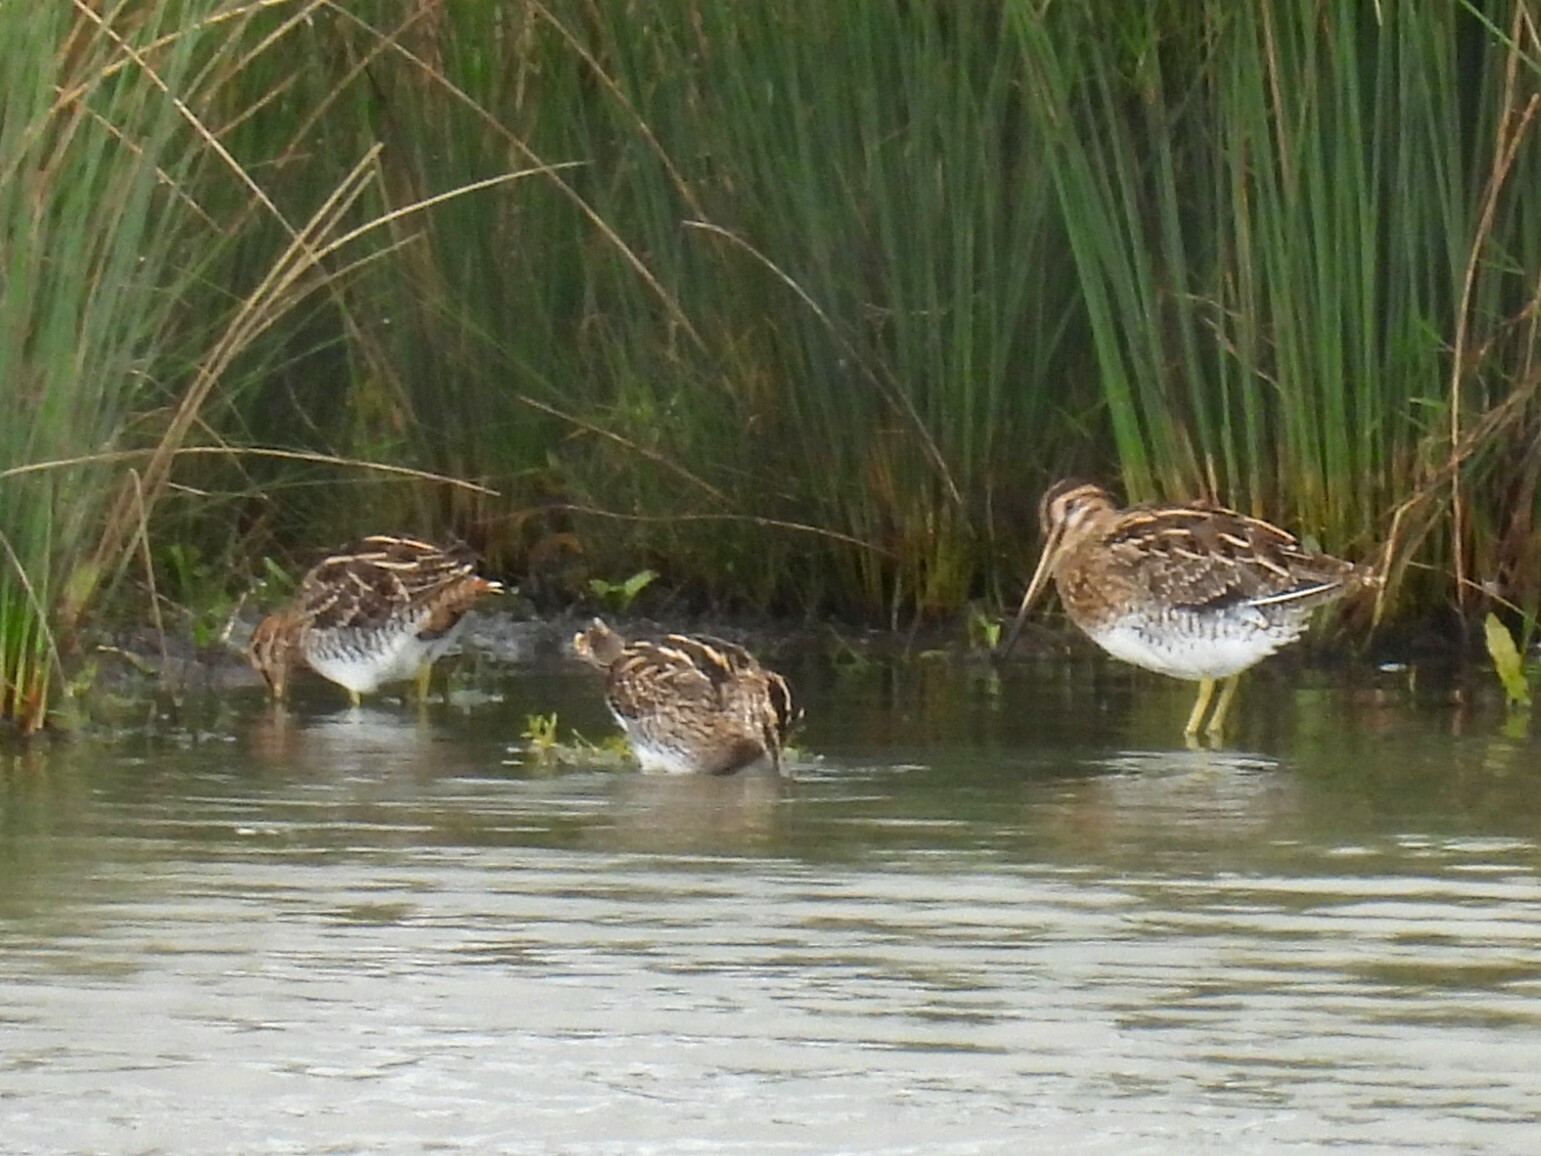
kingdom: Animalia
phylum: Chordata
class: Aves
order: Charadriiformes
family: Scolopacidae
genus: Gallinago
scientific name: Gallinago gallinago
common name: Common snipe
